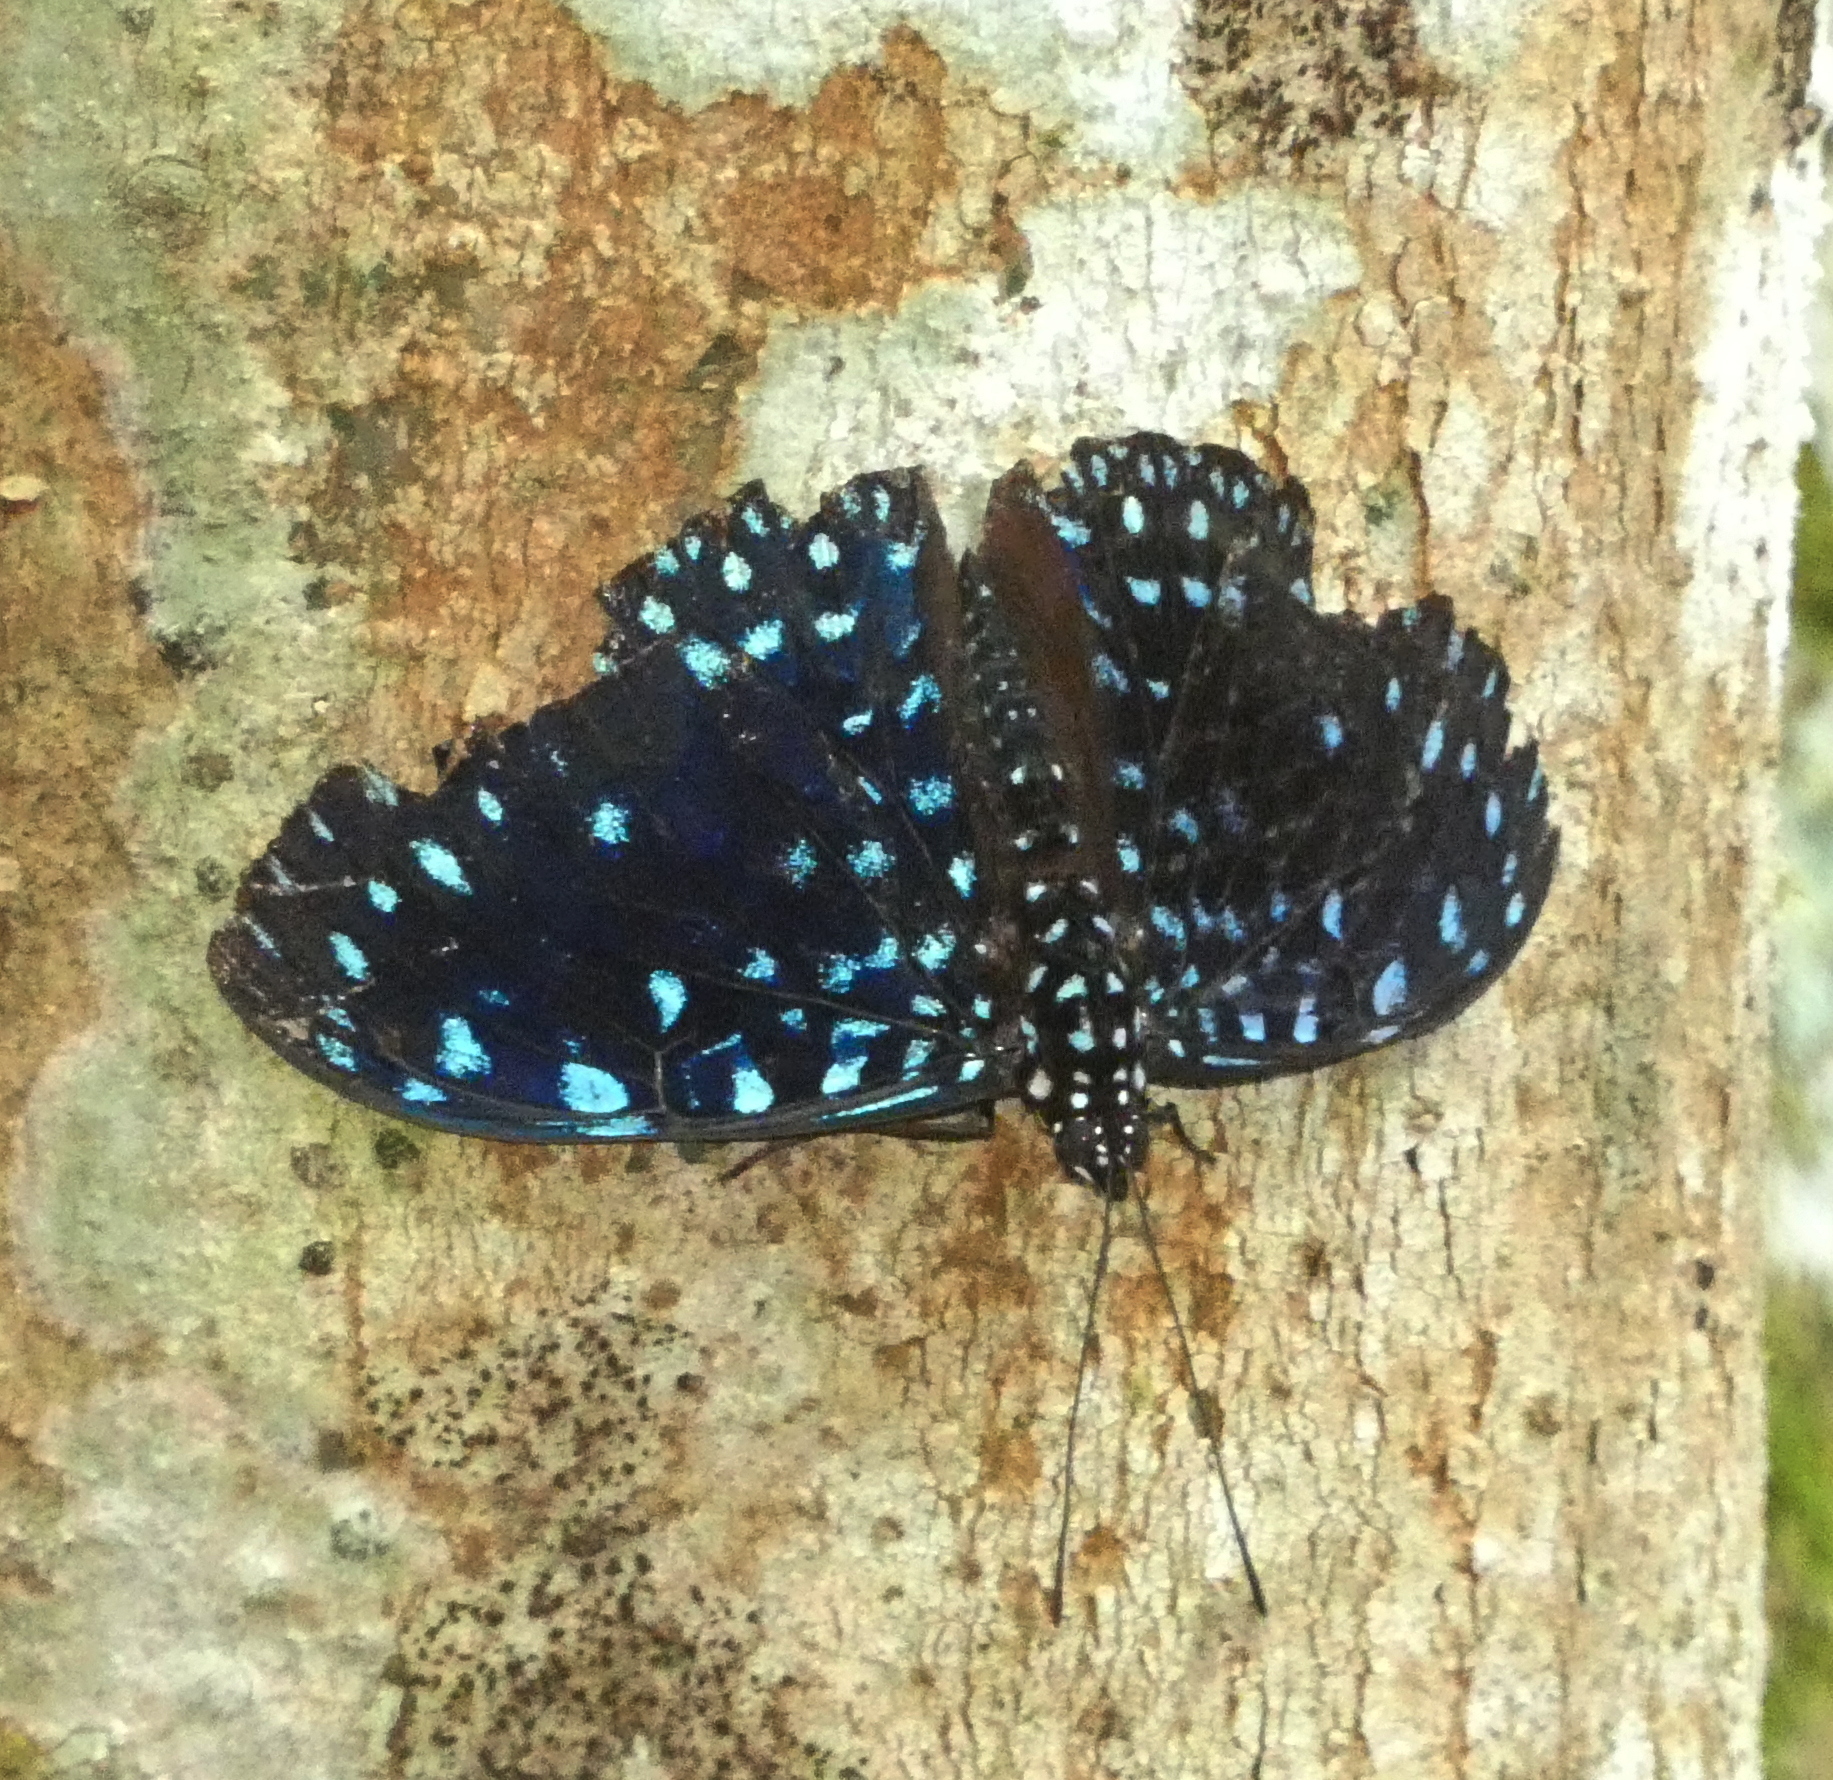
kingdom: Animalia
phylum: Arthropoda
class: Insecta
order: Lepidoptera
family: Nymphalidae
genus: Hamadryas
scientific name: Hamadryas laodamia
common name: Starry night cracker
